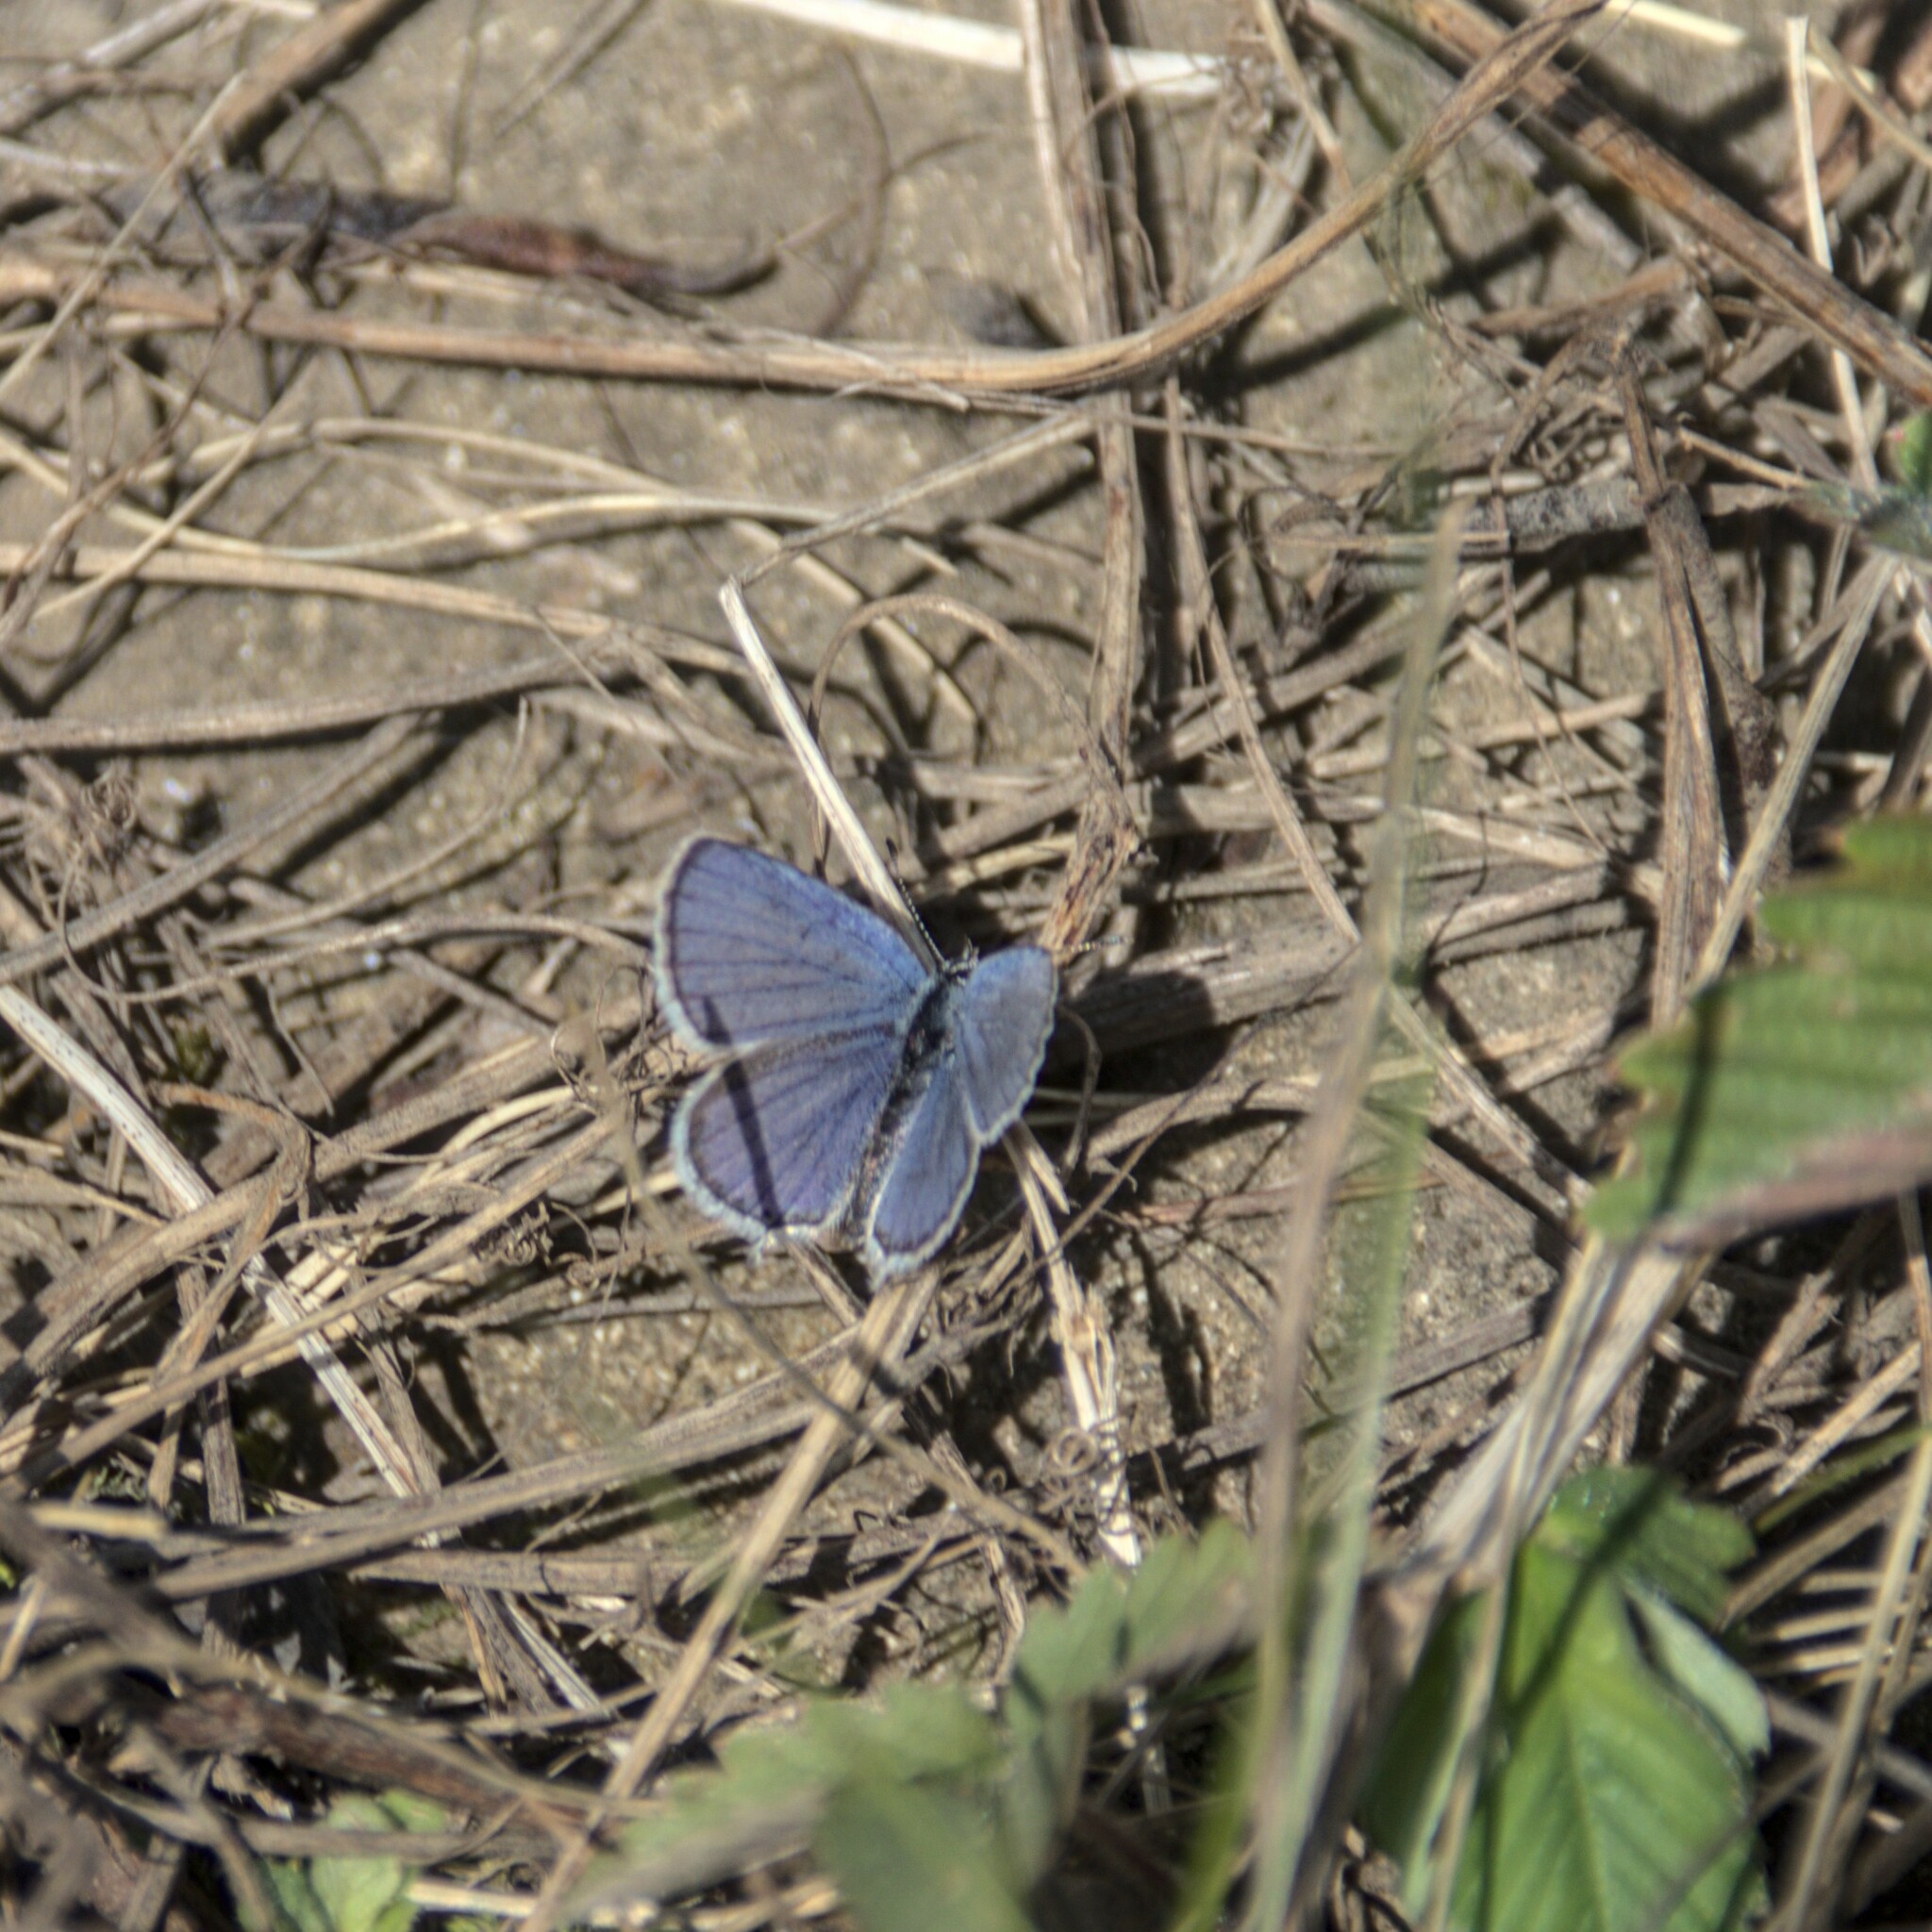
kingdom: Animalia
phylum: Arthropoda
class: Insecta
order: Lepidoptera
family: Lycaenidae
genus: Elkalyce
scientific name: Elkalyce argiades
